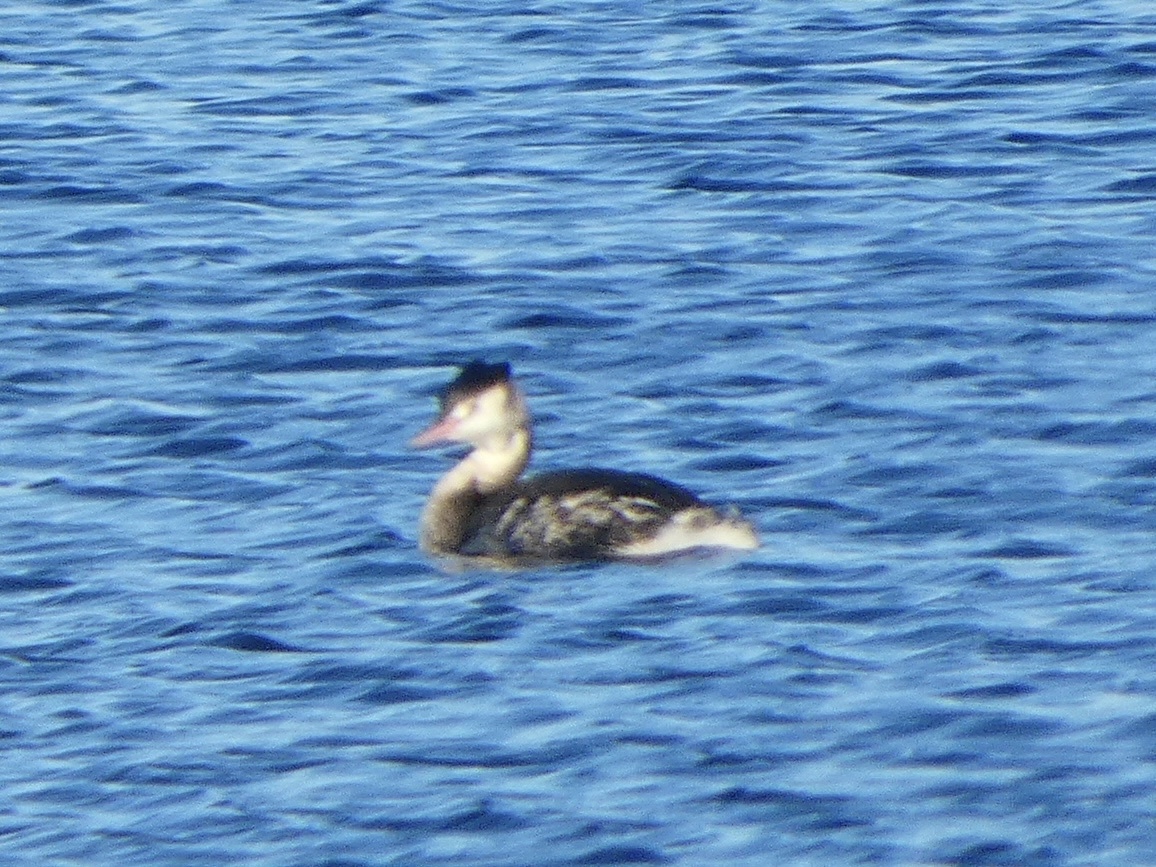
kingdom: Animalia
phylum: Chordata
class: Aves
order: Podicipediformes
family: Podicipedidae
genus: Podiceps
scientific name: Podiceps cristatus
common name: Great crested grebe
